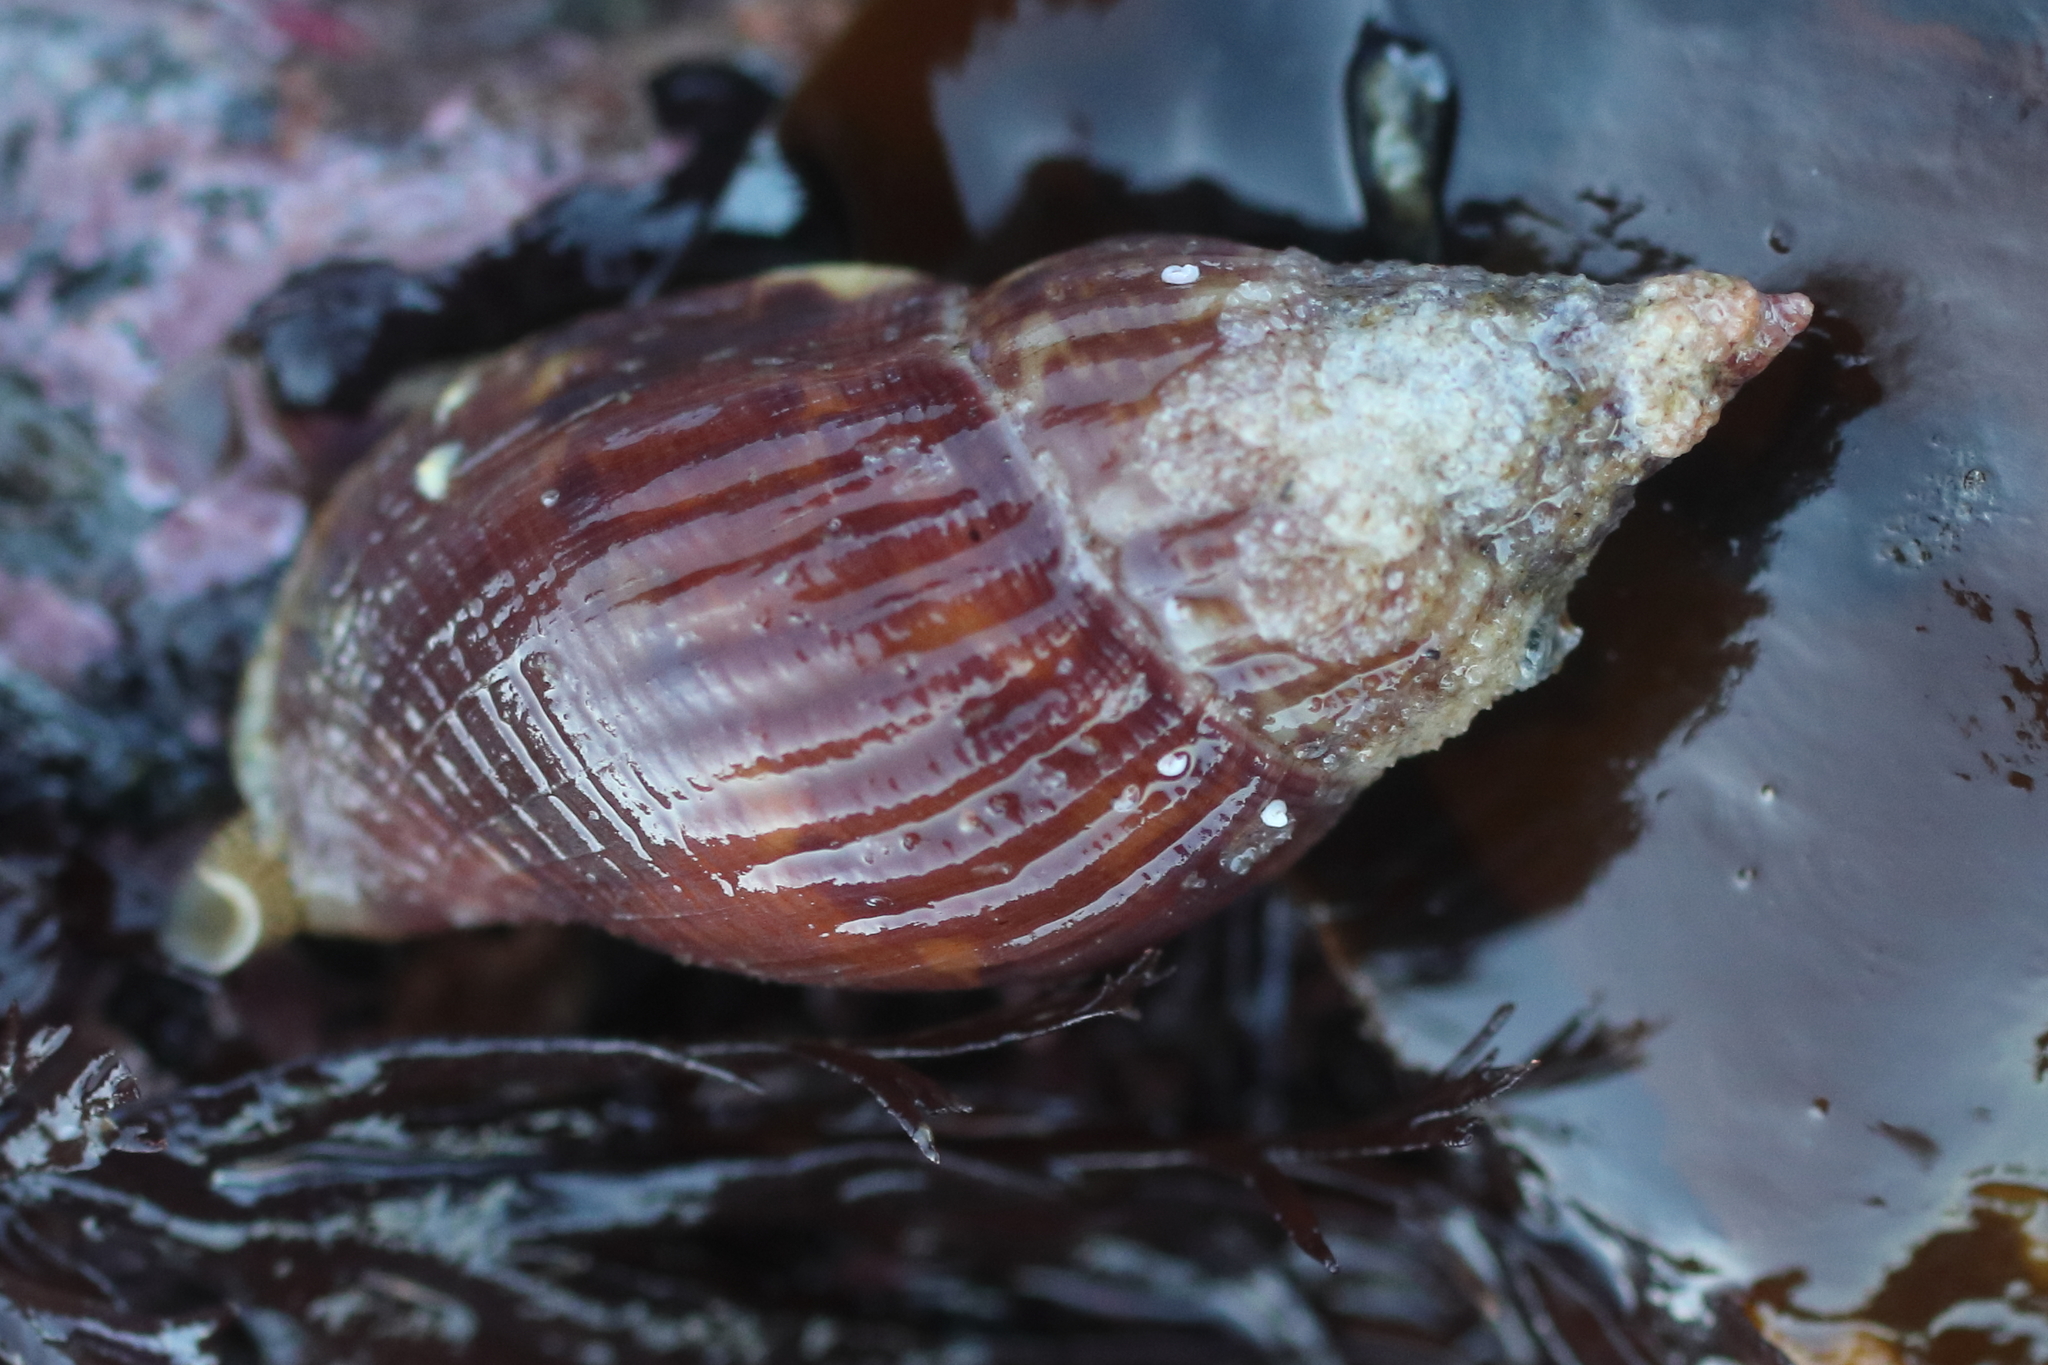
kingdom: Animalia
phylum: Mollusca
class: Gastropoda
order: Neogastropoda
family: Columbellidae
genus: Amphissa
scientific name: Amphissa columbiana
